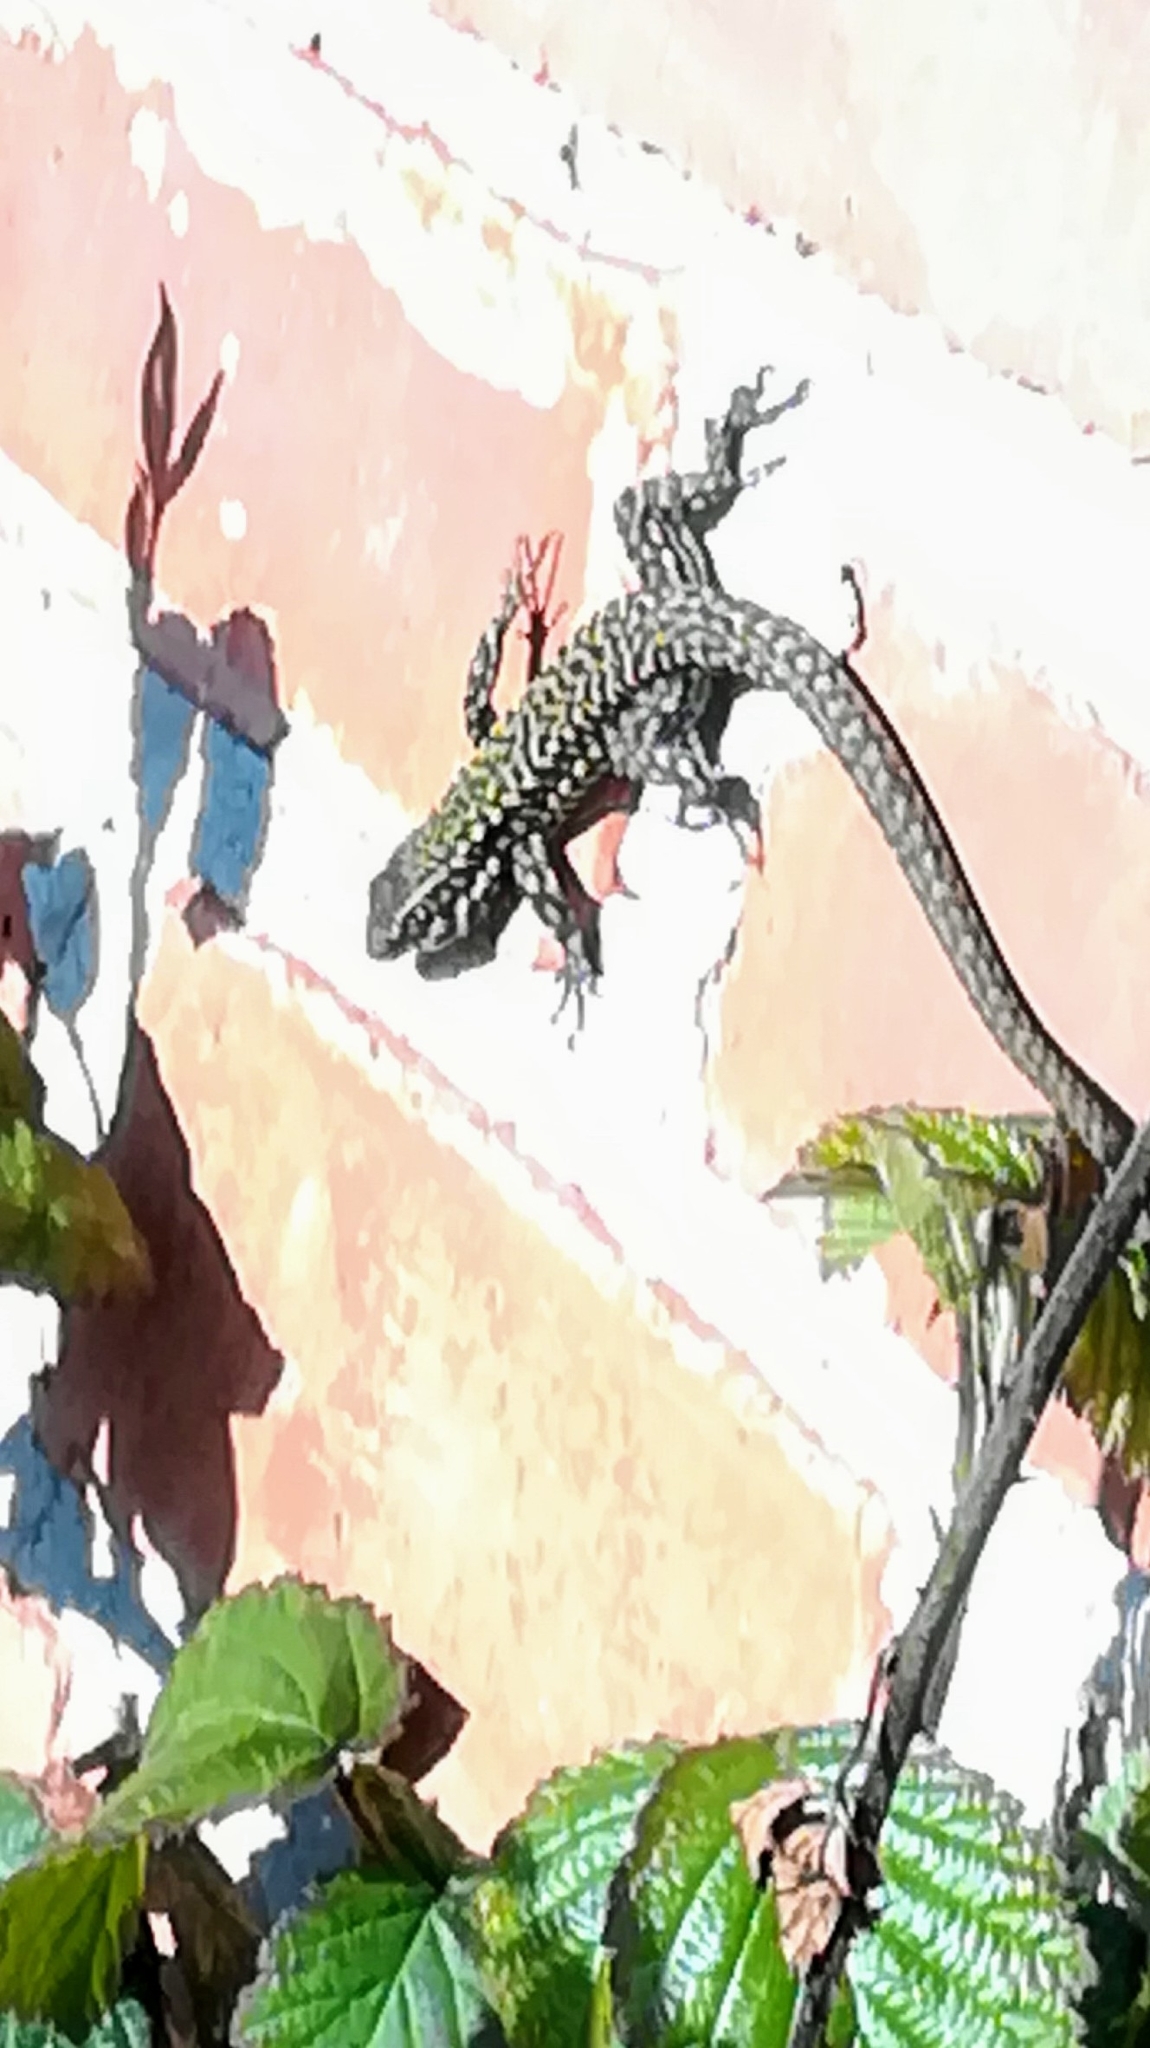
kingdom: Animalia
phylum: Chordata
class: Squamata
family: Lacertidae
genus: Podarcis
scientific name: Podarcis muralis
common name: Common wall lizard
